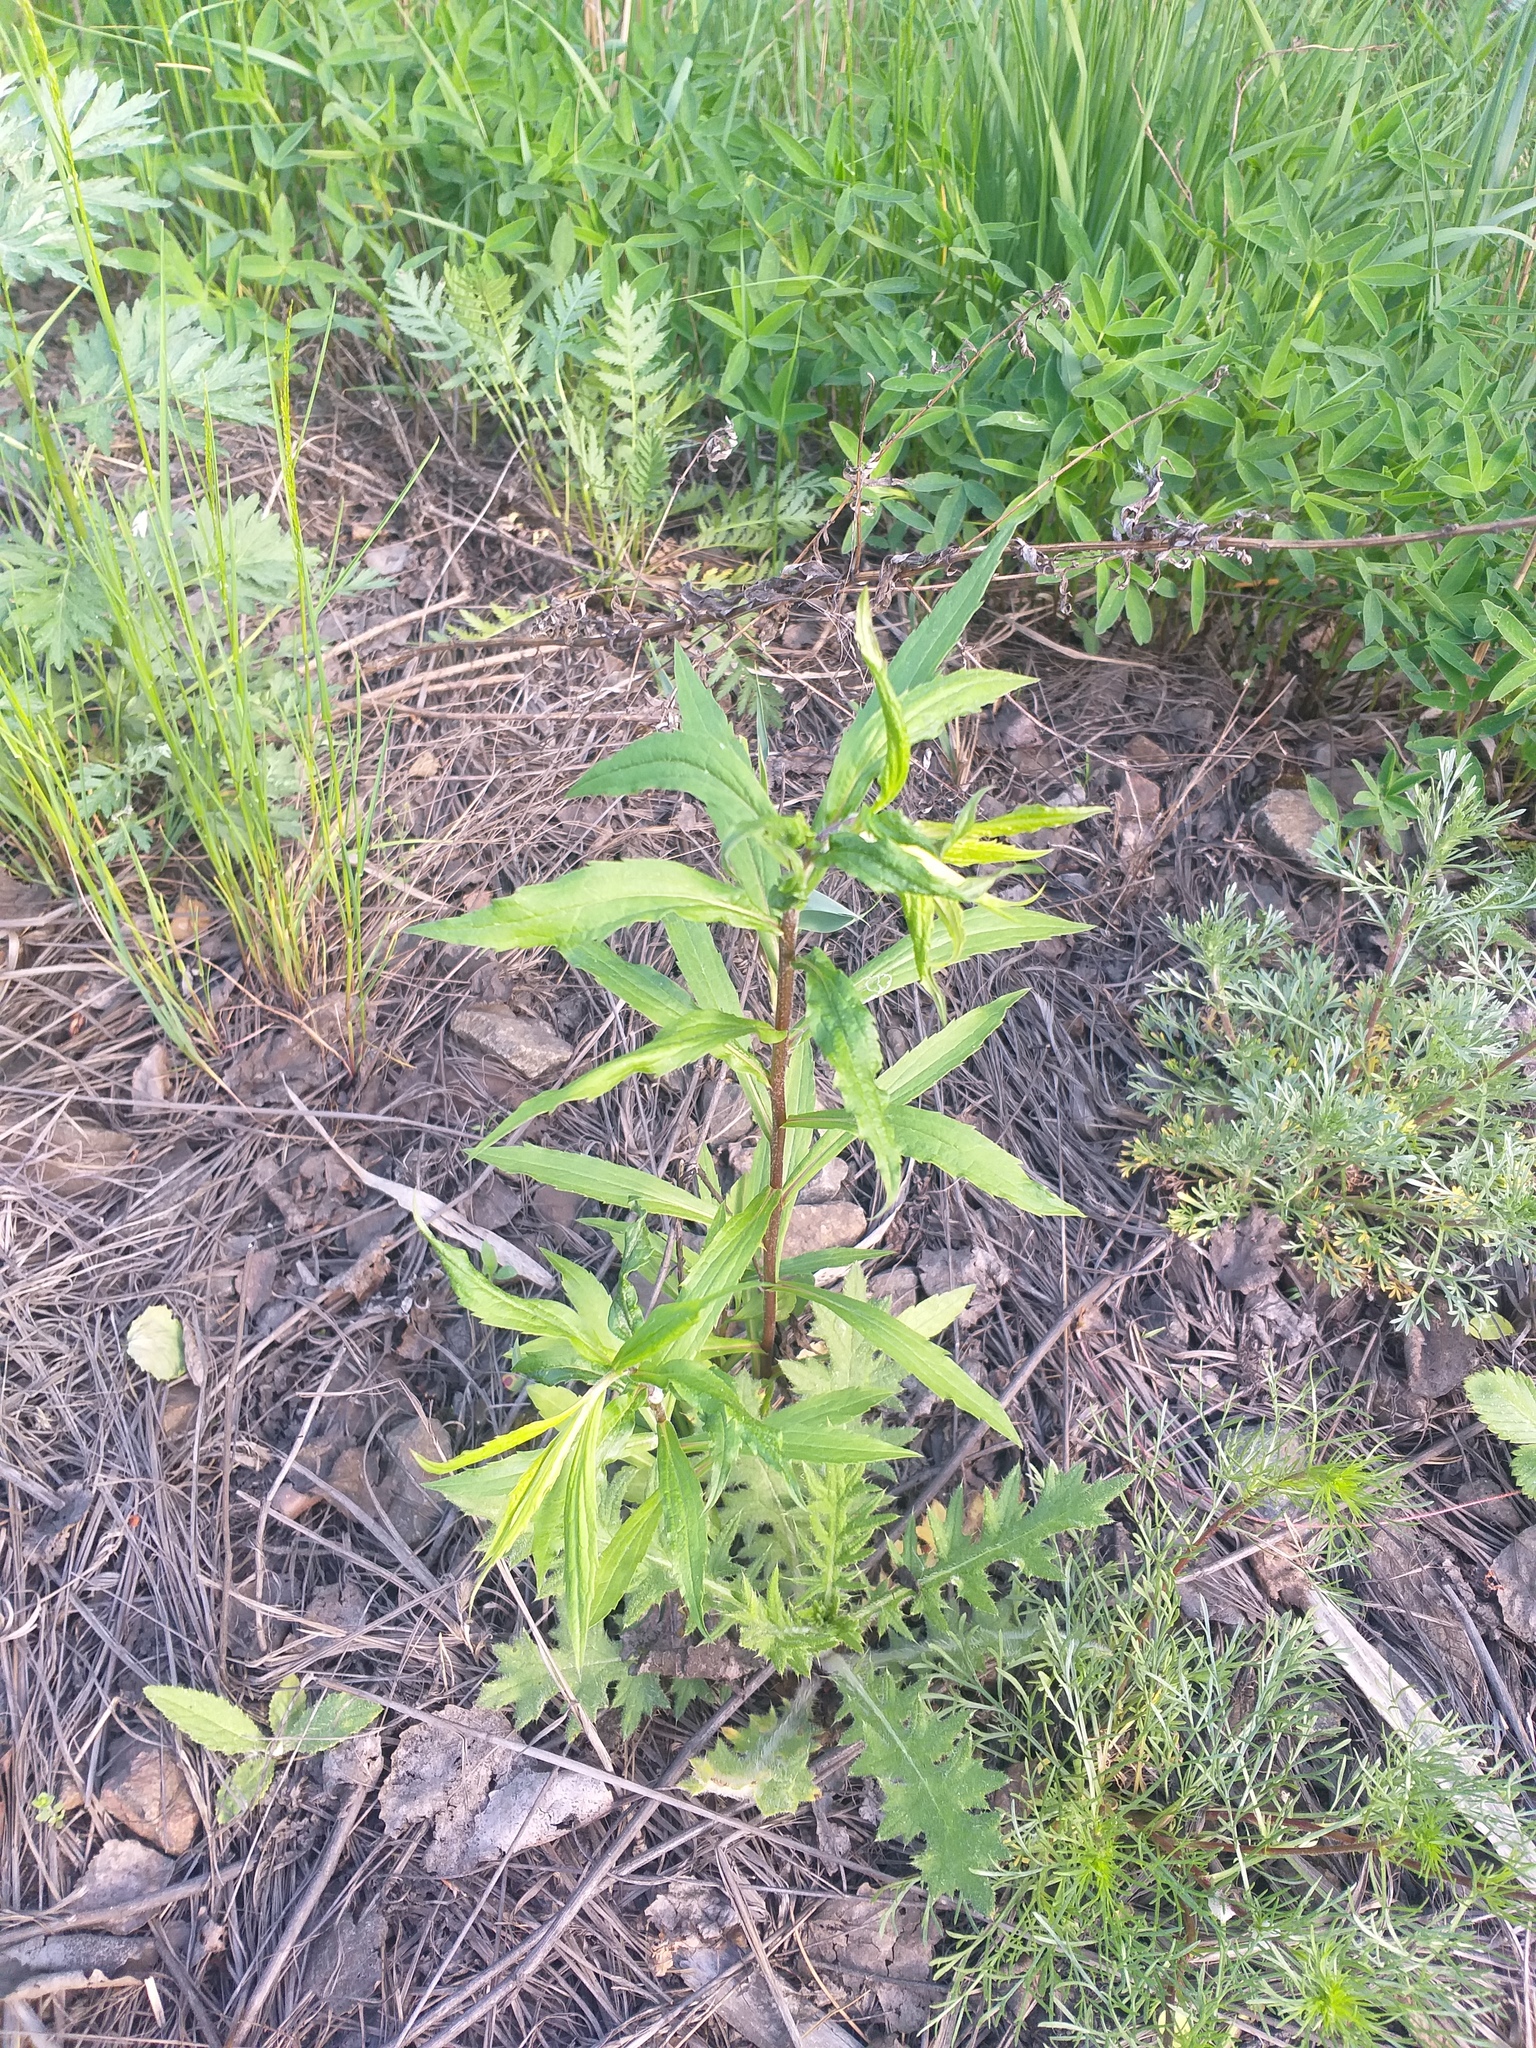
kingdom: Plantae
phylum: Tracheophyta
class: Magnoliopsida
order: Asterales
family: Asteraceae
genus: Solidago
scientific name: Solidago canadensis
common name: Canada goldenrod
